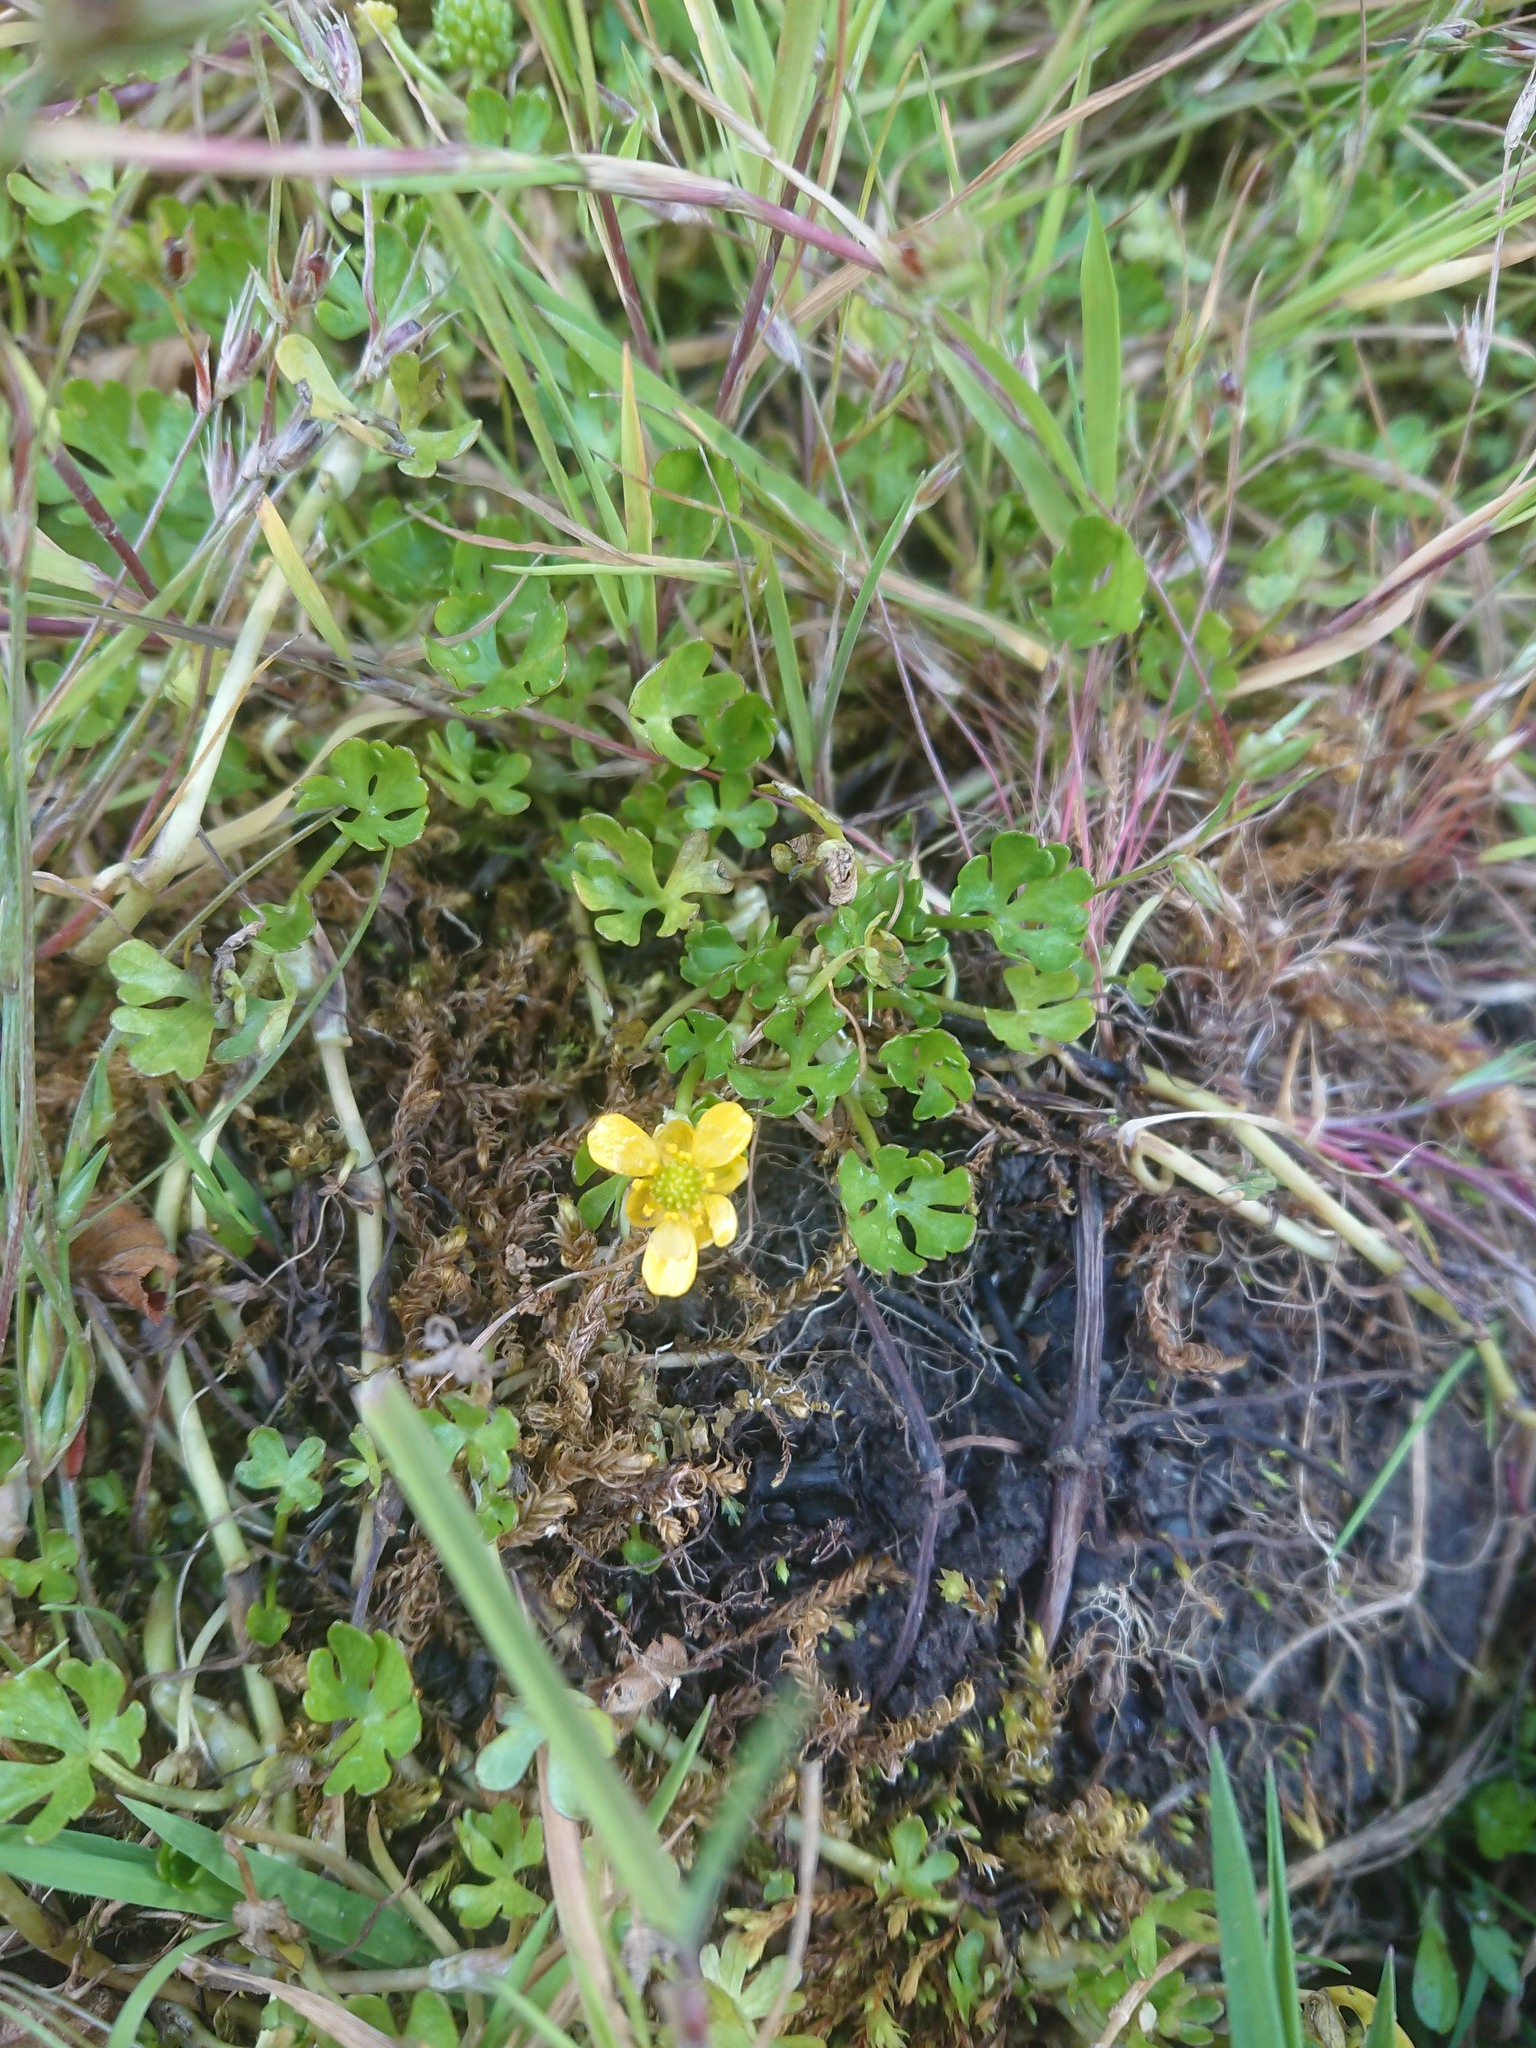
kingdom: Plantae
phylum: Tracheophyta
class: Magnoliopsida
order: Ranunculales
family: Ranunculaceae
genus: Ranunculus
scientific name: Ranunculus fuegianus
